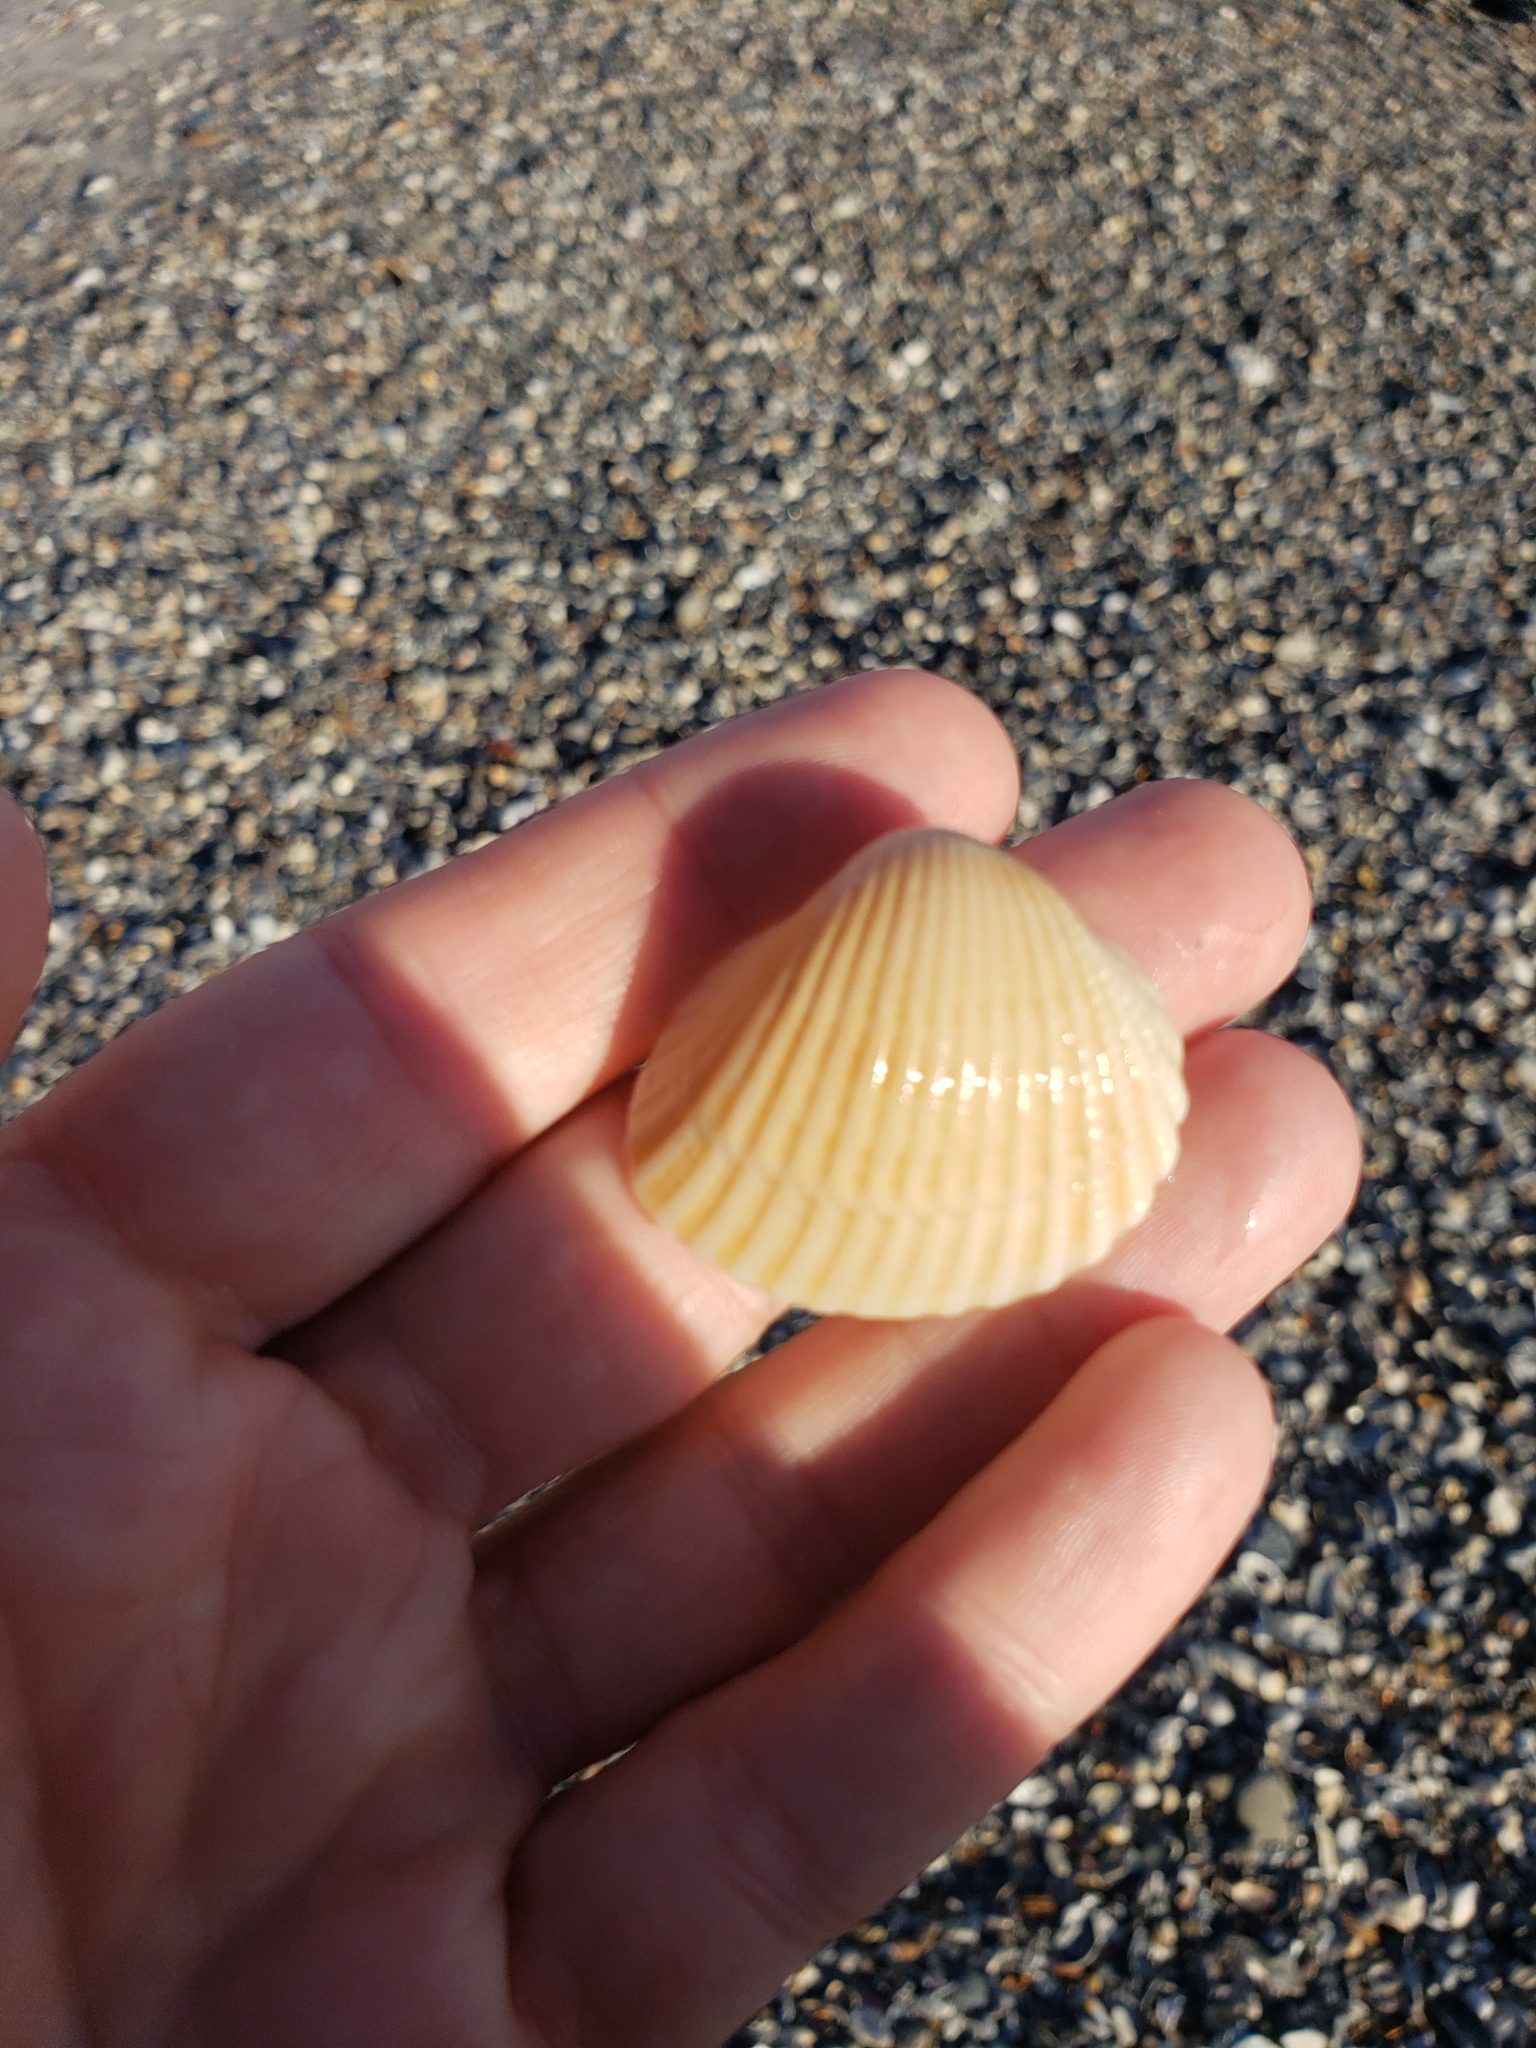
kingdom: Animalia
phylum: Mollusca
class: Bivalvia
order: Arcida
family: Arcidae
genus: Anadara
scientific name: Anadara brasiliana
